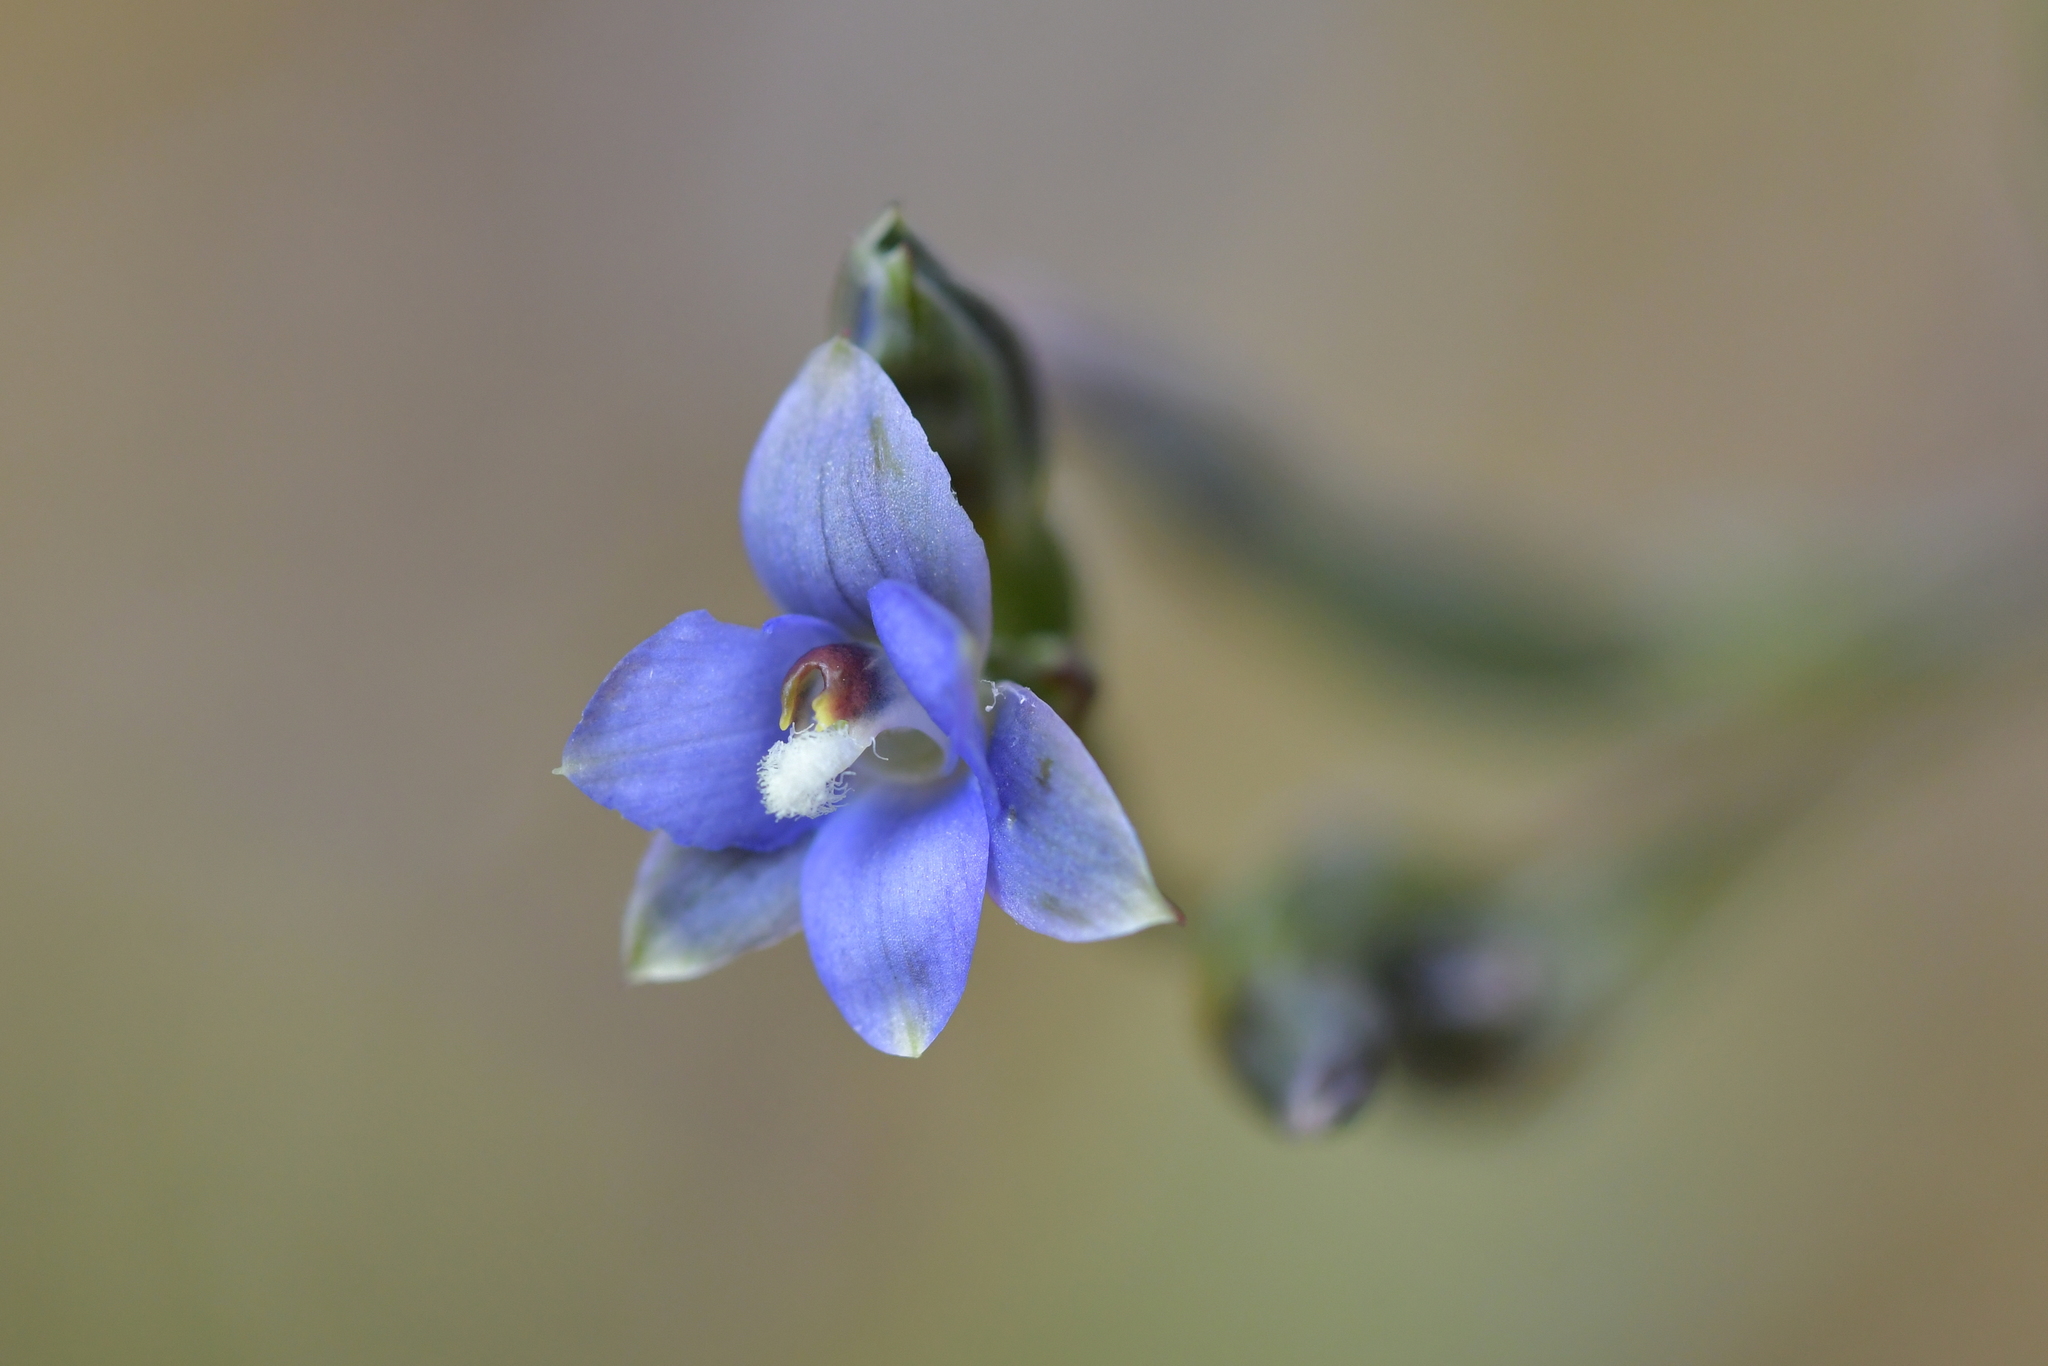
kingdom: Plantae
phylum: Tracheophyta
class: Liliopsida
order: Asparagales
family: Orchidaceae
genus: Thelymitra
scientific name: Thelymitra hatchii
